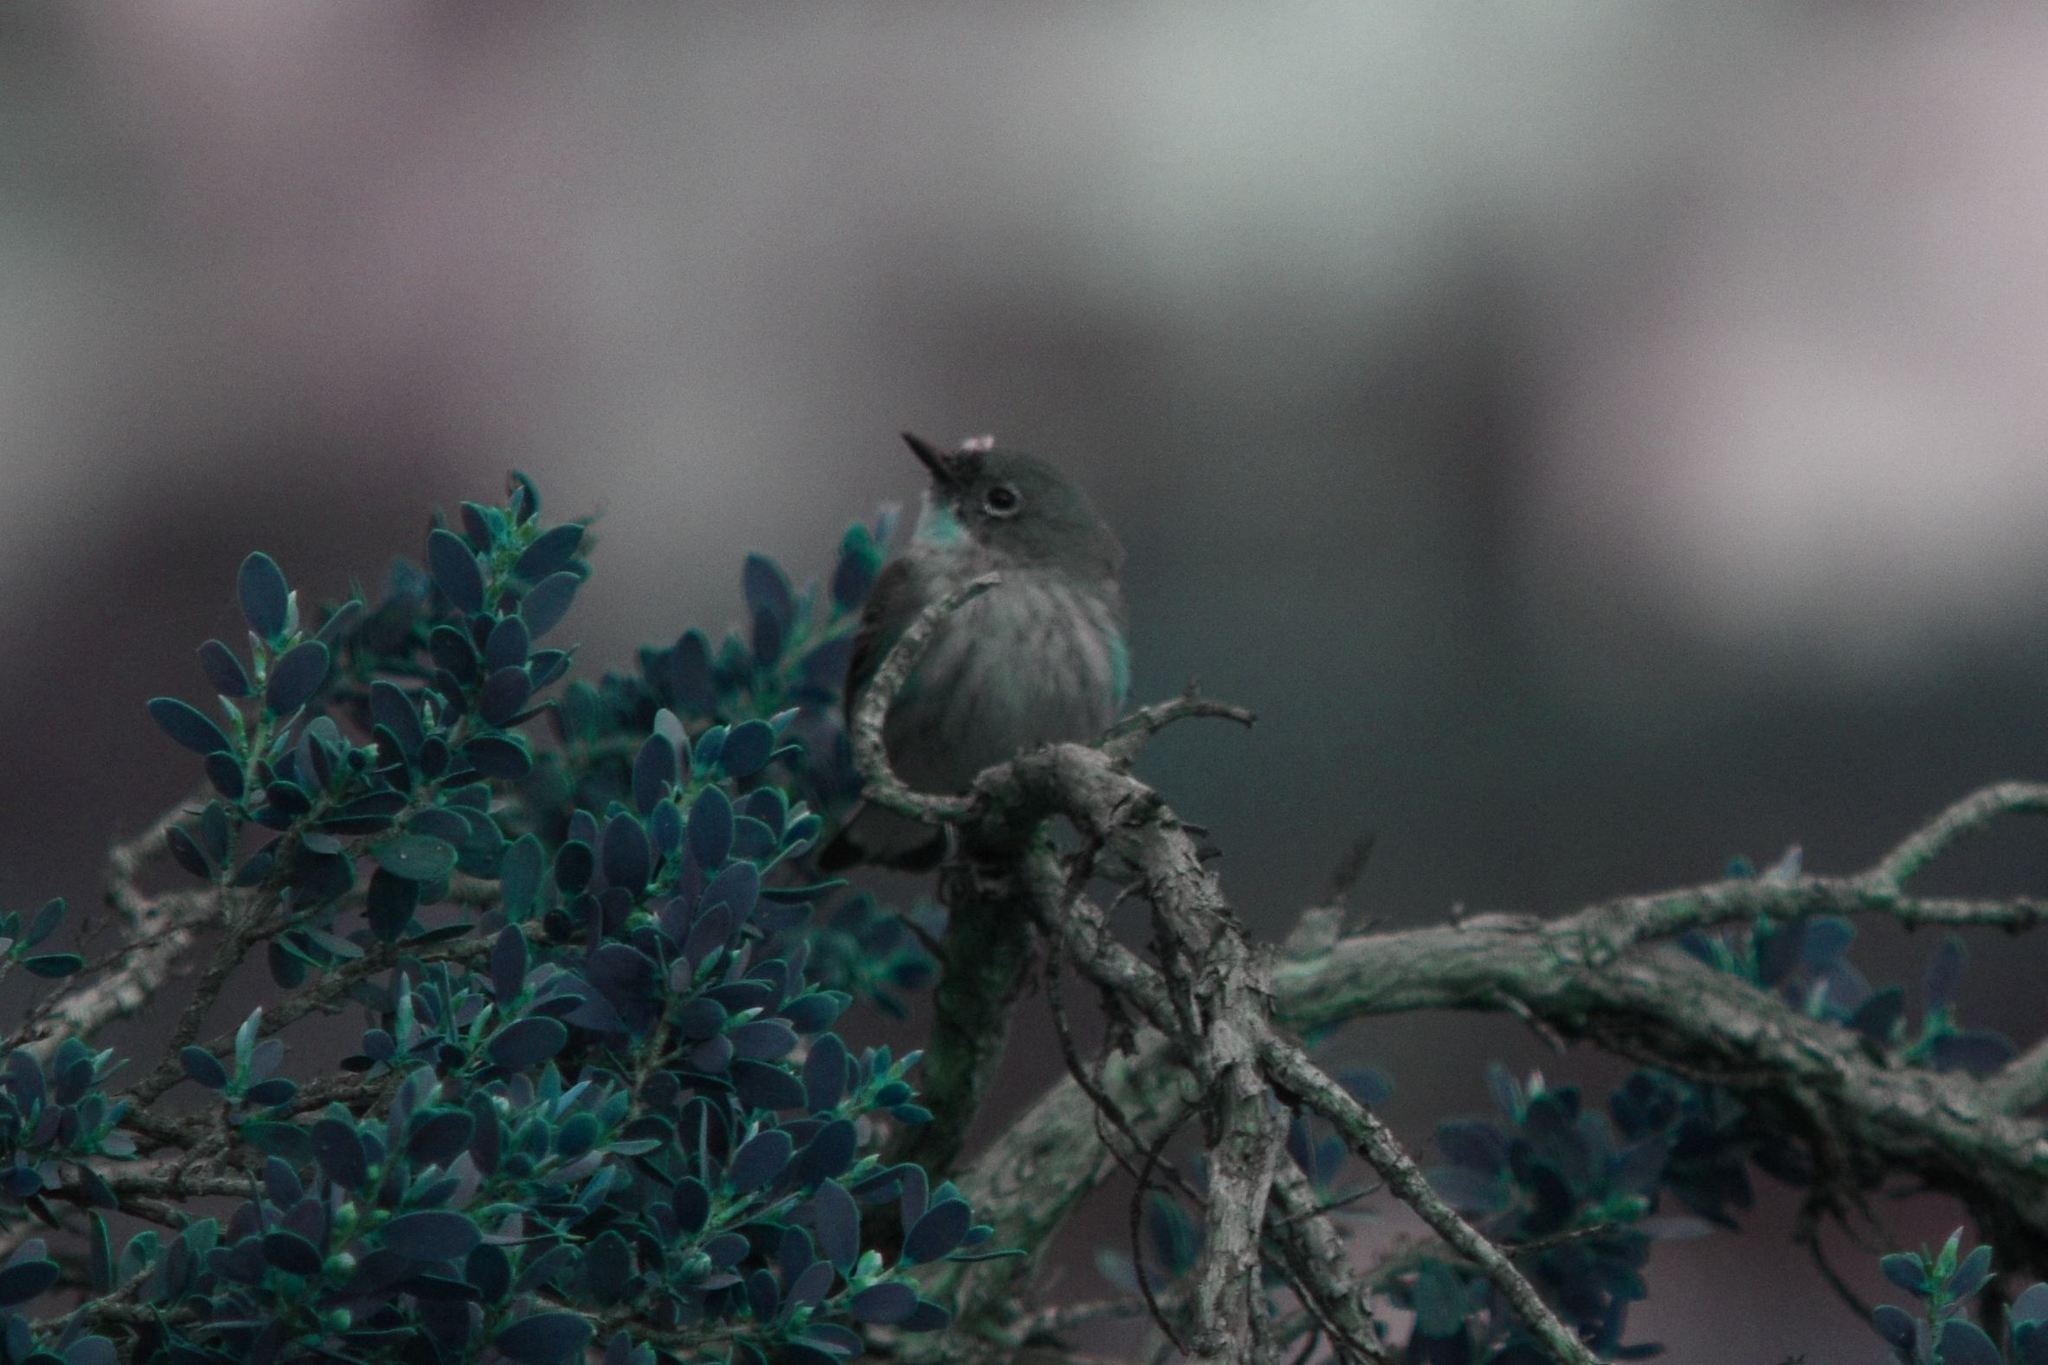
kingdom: Animalia
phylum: Chordata
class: Aves
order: Passeriformes
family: Parulidae
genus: Setophaga
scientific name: Setophaga coronata
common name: Myrtle warbler
